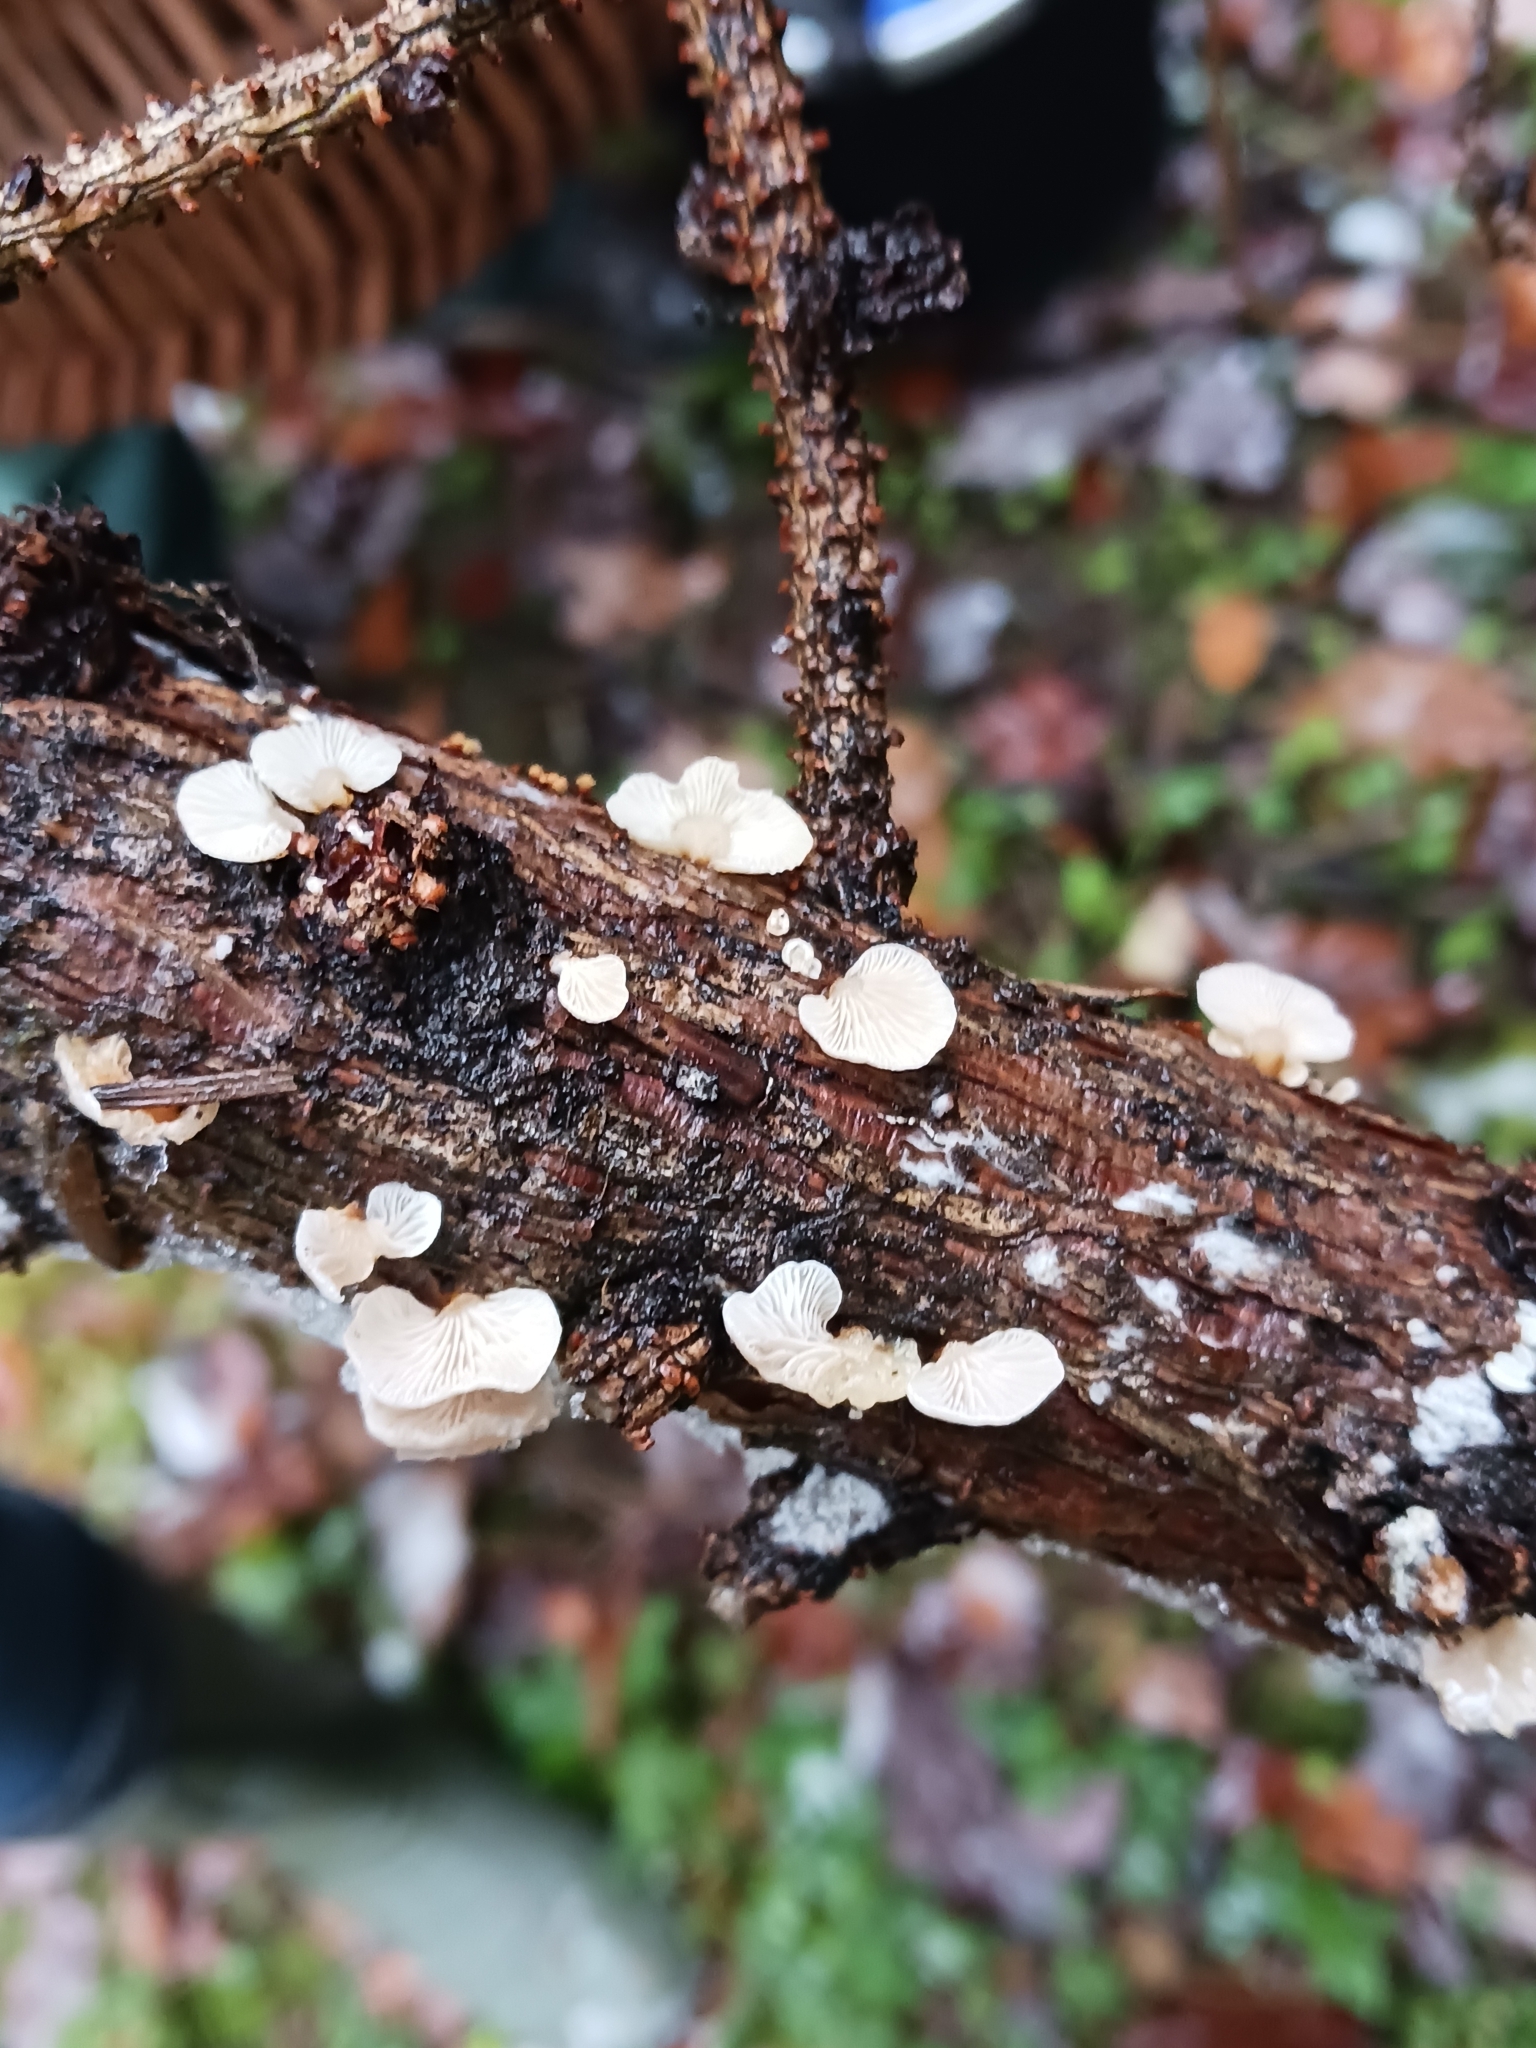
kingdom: Fungi
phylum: Basidiomycota
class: Agaricomycetes
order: Agaricales
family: Mycenaceae
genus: Panellus
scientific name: Panellus mitis
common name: Elastic oysterling
